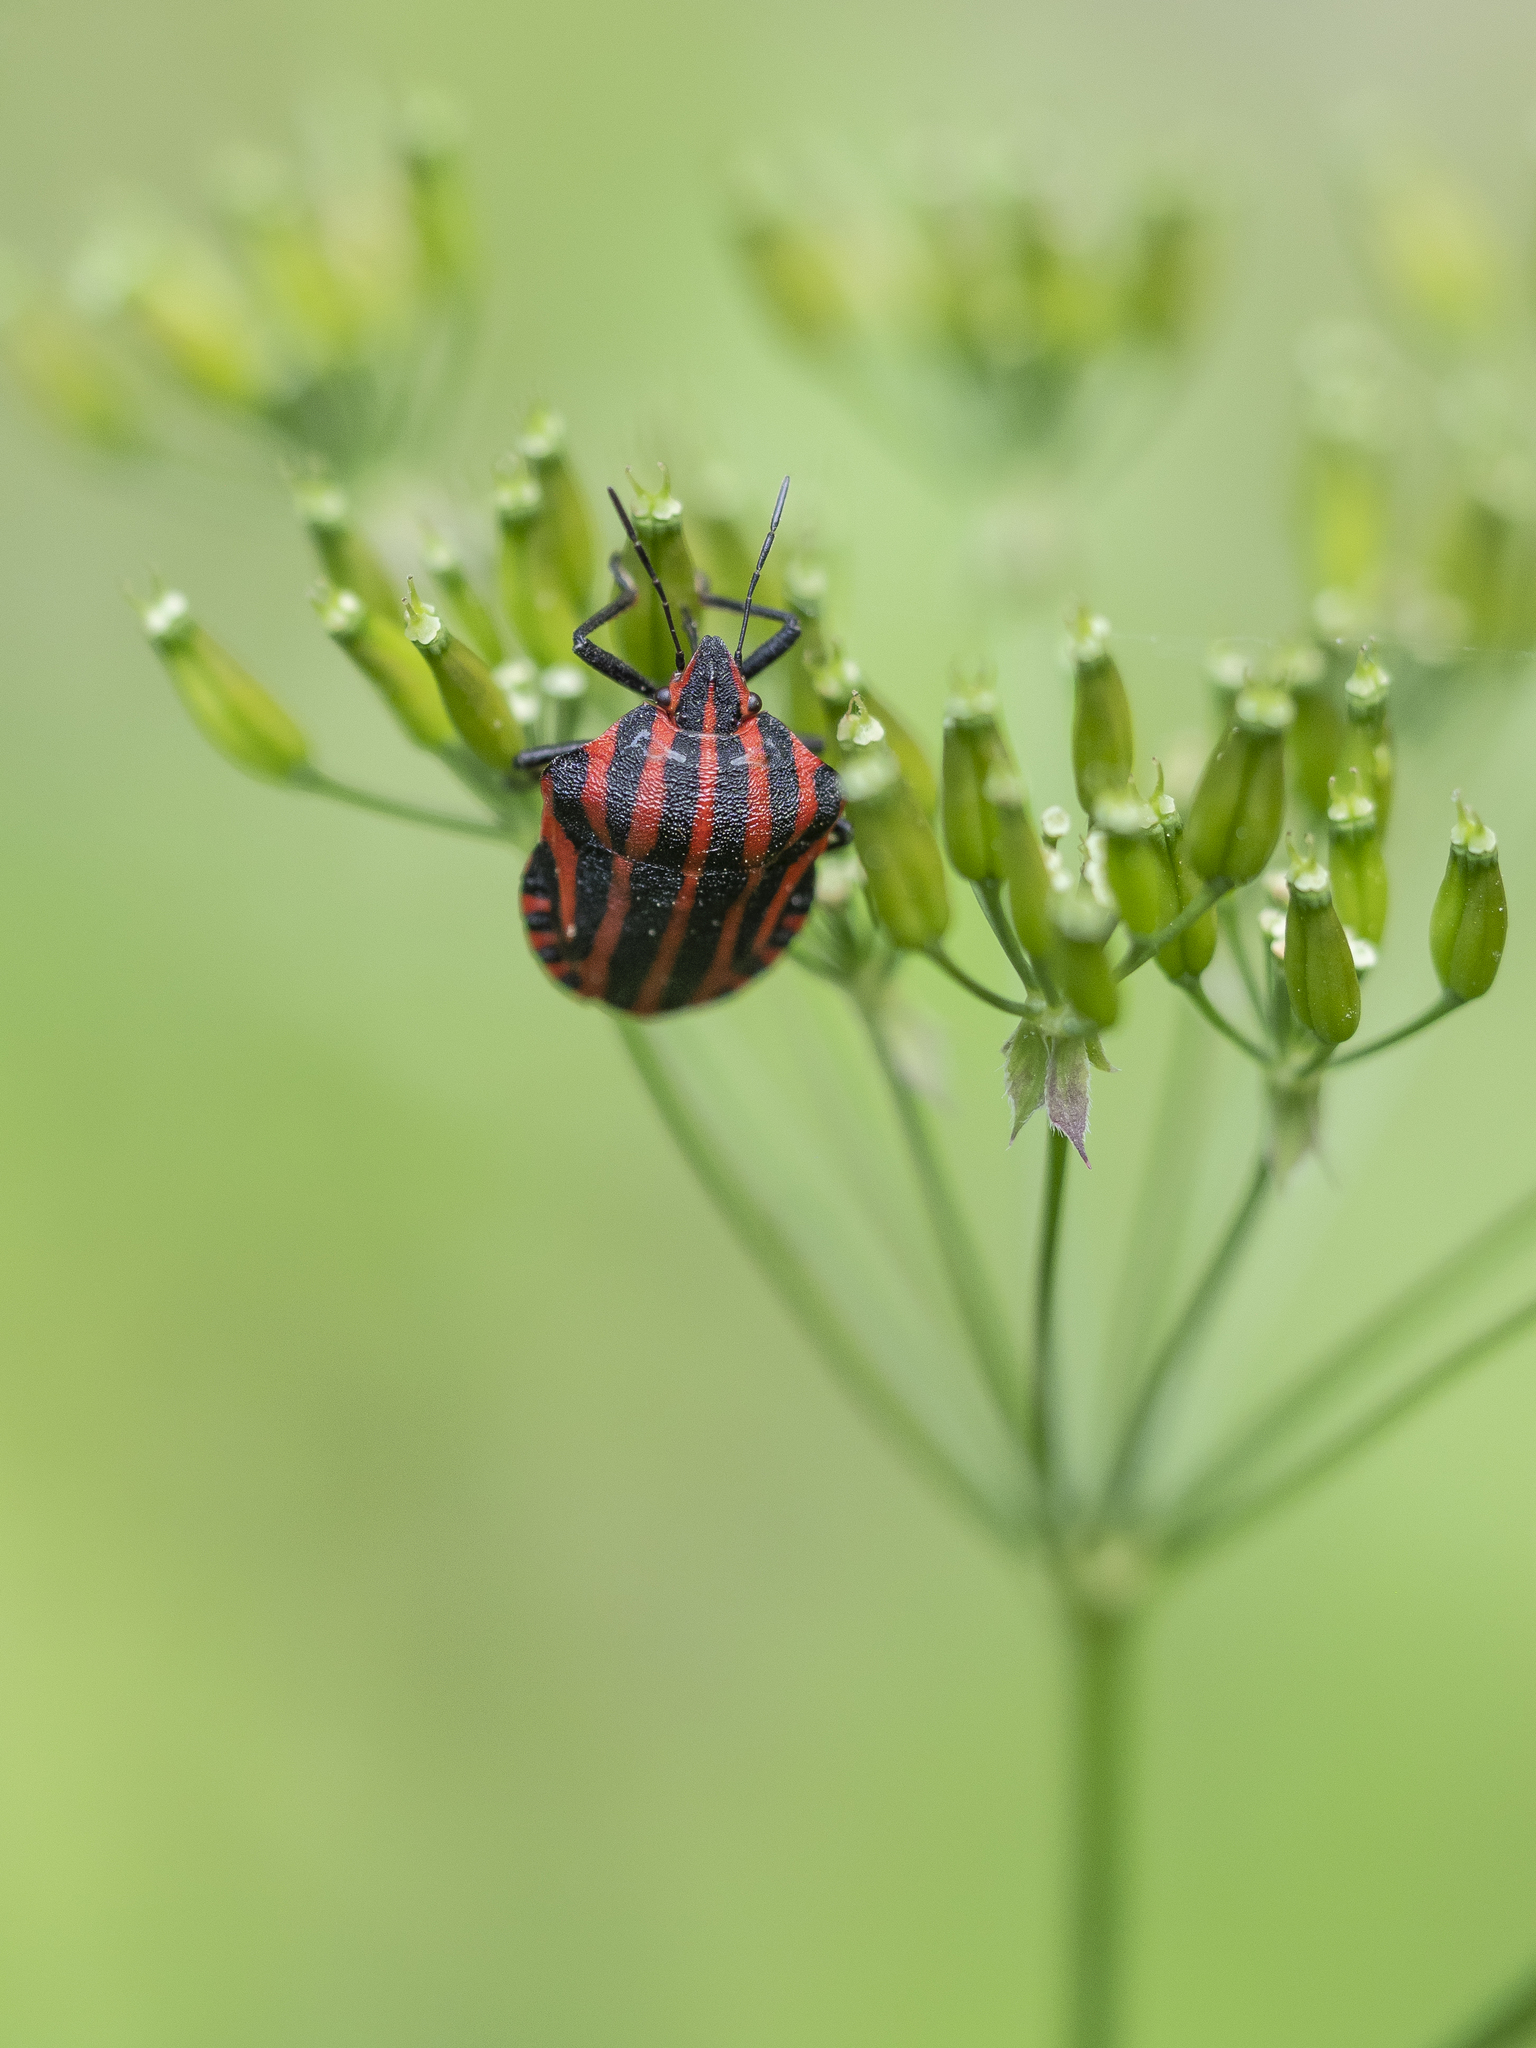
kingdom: Animalia
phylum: Arthropoda
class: Insecta
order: Hemiptera
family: Pentatomidae
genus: Graphosoma
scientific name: Graphosoma italicum
